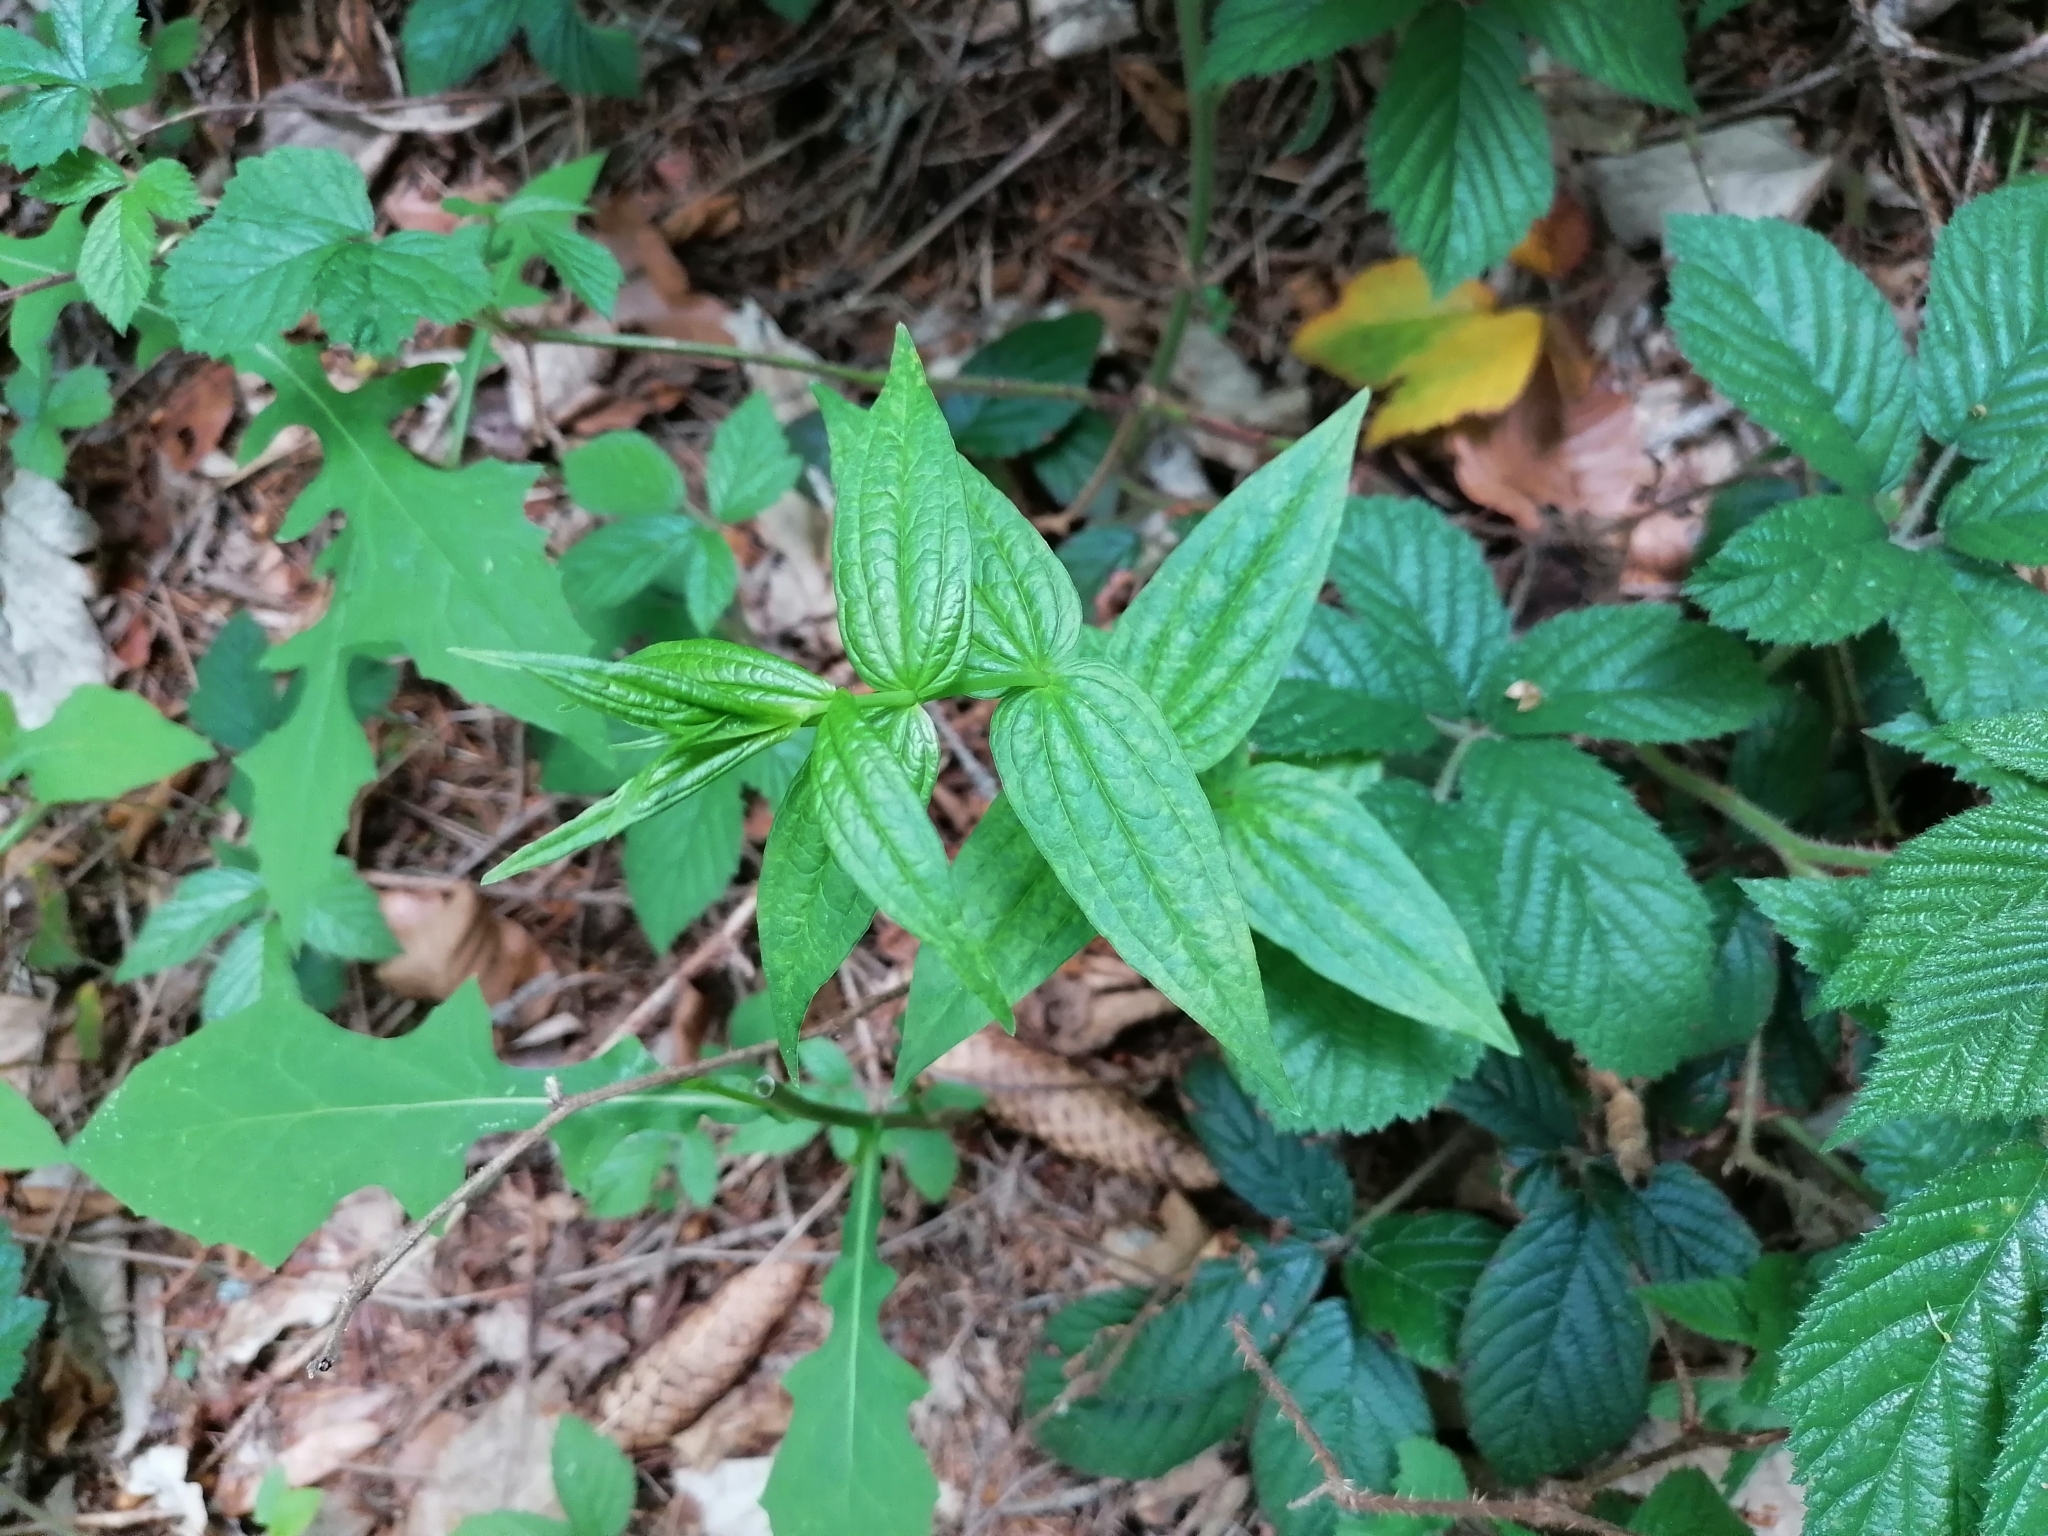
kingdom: Plantae
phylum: Tracheophyta
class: Magnoliopsida
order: Gentianales
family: Gentianaceae
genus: Gentiana
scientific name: Gentiana asclepiadea
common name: Willow gentian
